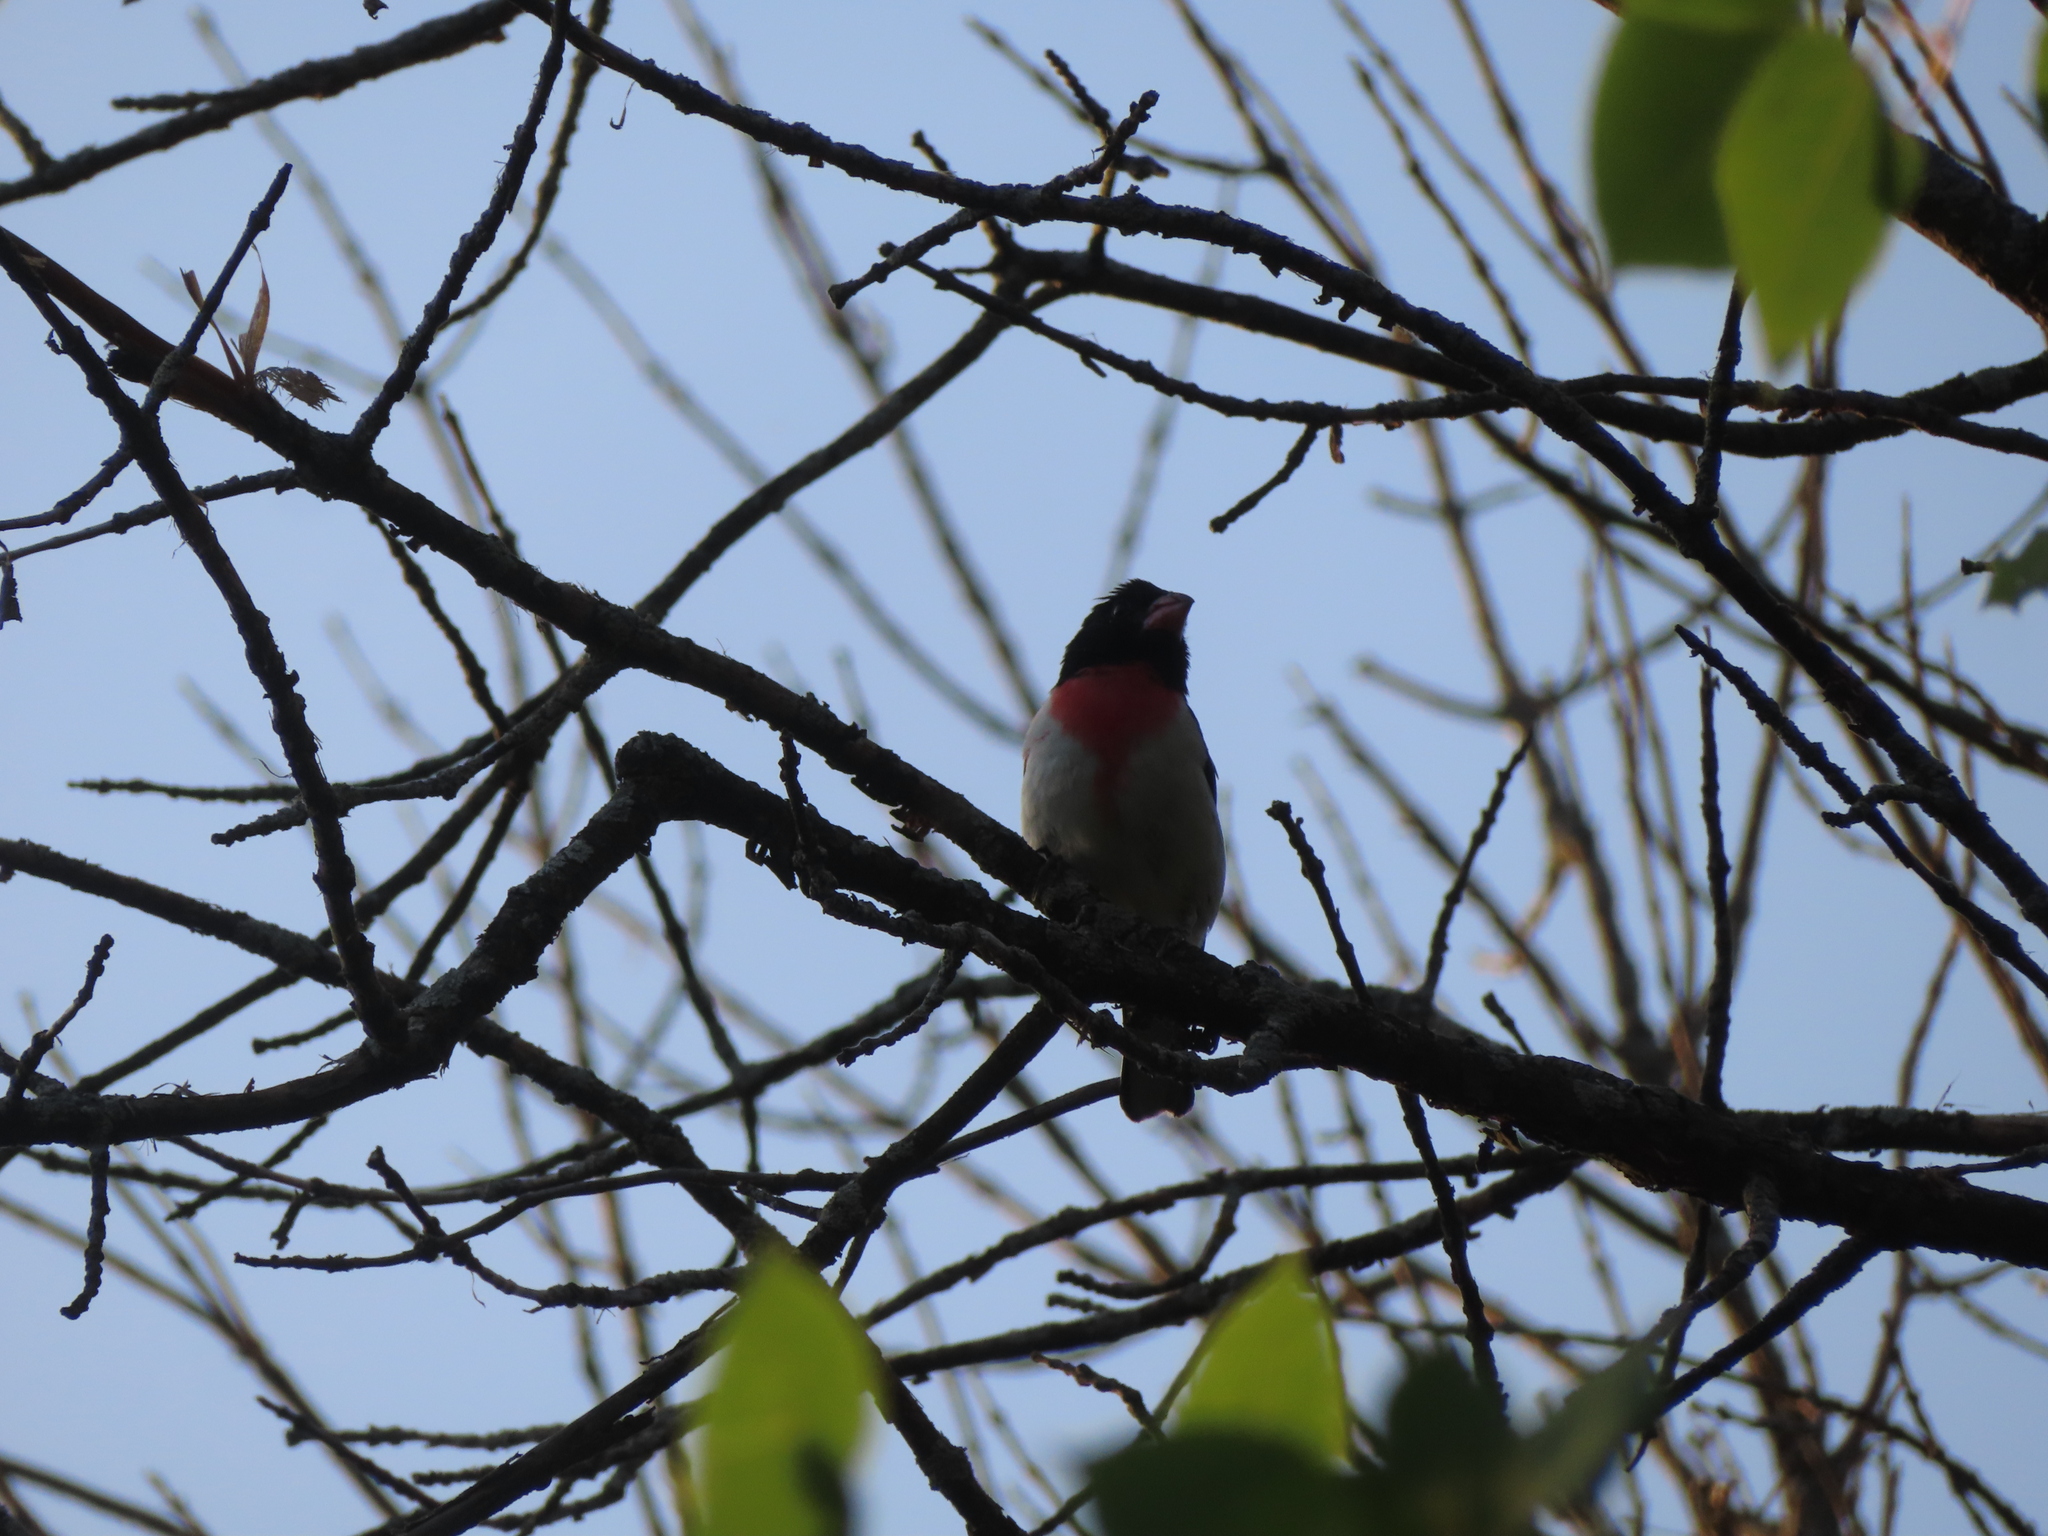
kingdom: Animalia
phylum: Chordata
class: Aves
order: Passeriformes
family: Cardinalidae
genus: Pheucticus
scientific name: Pheucticus ludovicianus
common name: Rose-breasted grosbeak
